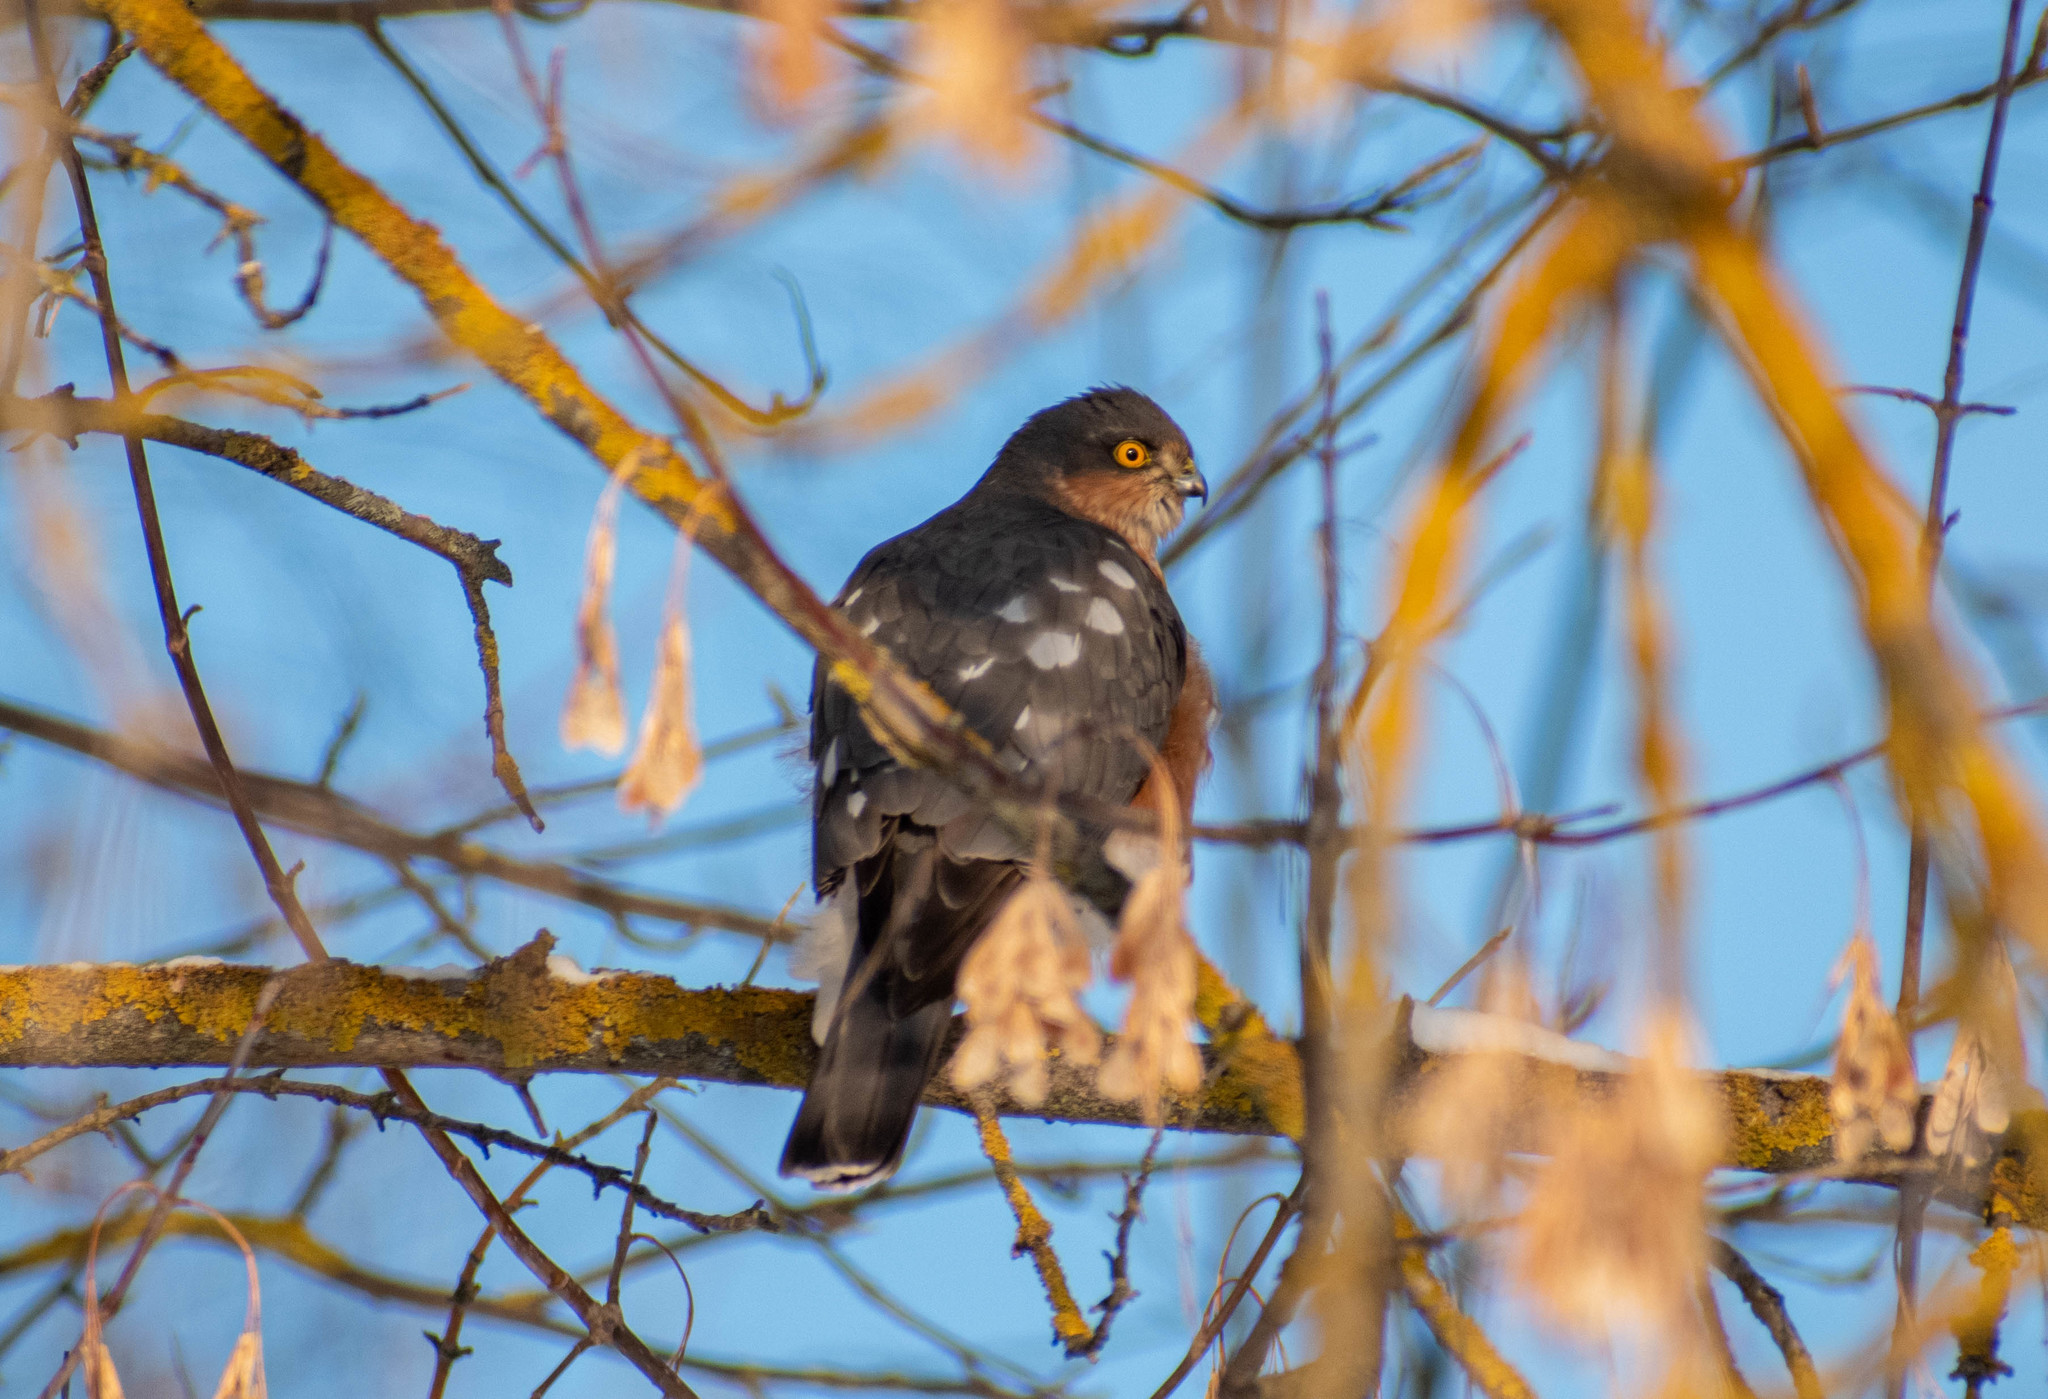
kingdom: Animalia
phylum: Chordata
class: Aves
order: Accipitriformes
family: Accipitridae
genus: Accipiter
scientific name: Accipiter nisus
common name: Eurasian sparrowhawk
